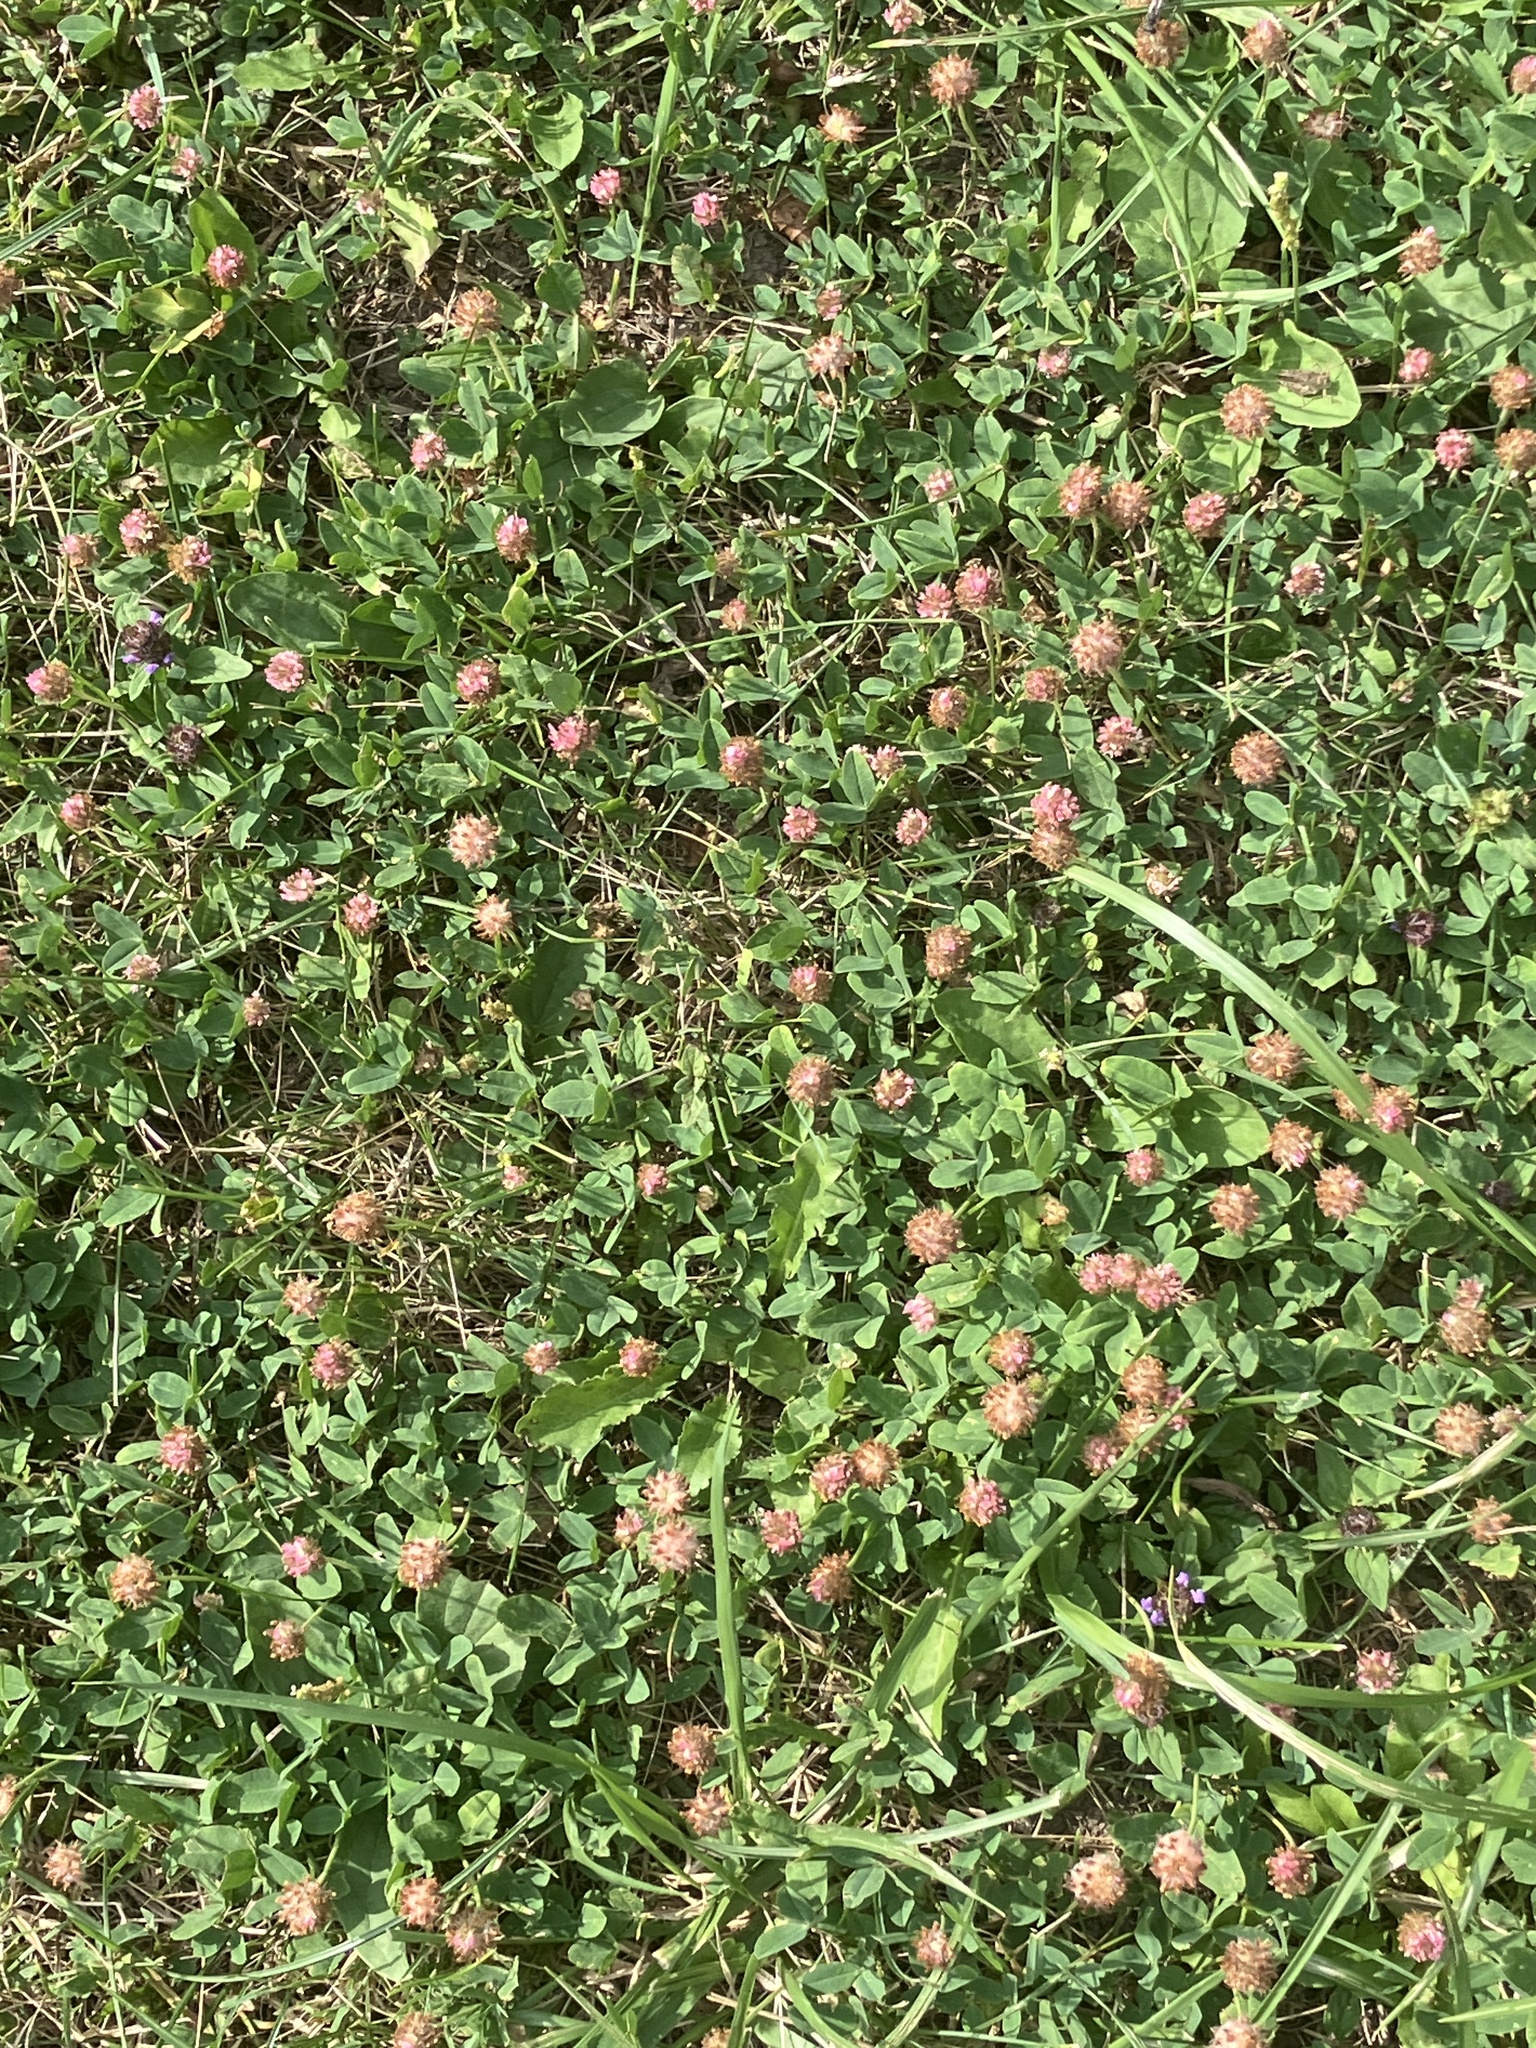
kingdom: Plantae
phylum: Tracheophyta
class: Magnoliopsida
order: Fabales
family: Fabaceae
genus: Trifolium
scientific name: Trifolium fragiferum
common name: Strawberry clover
